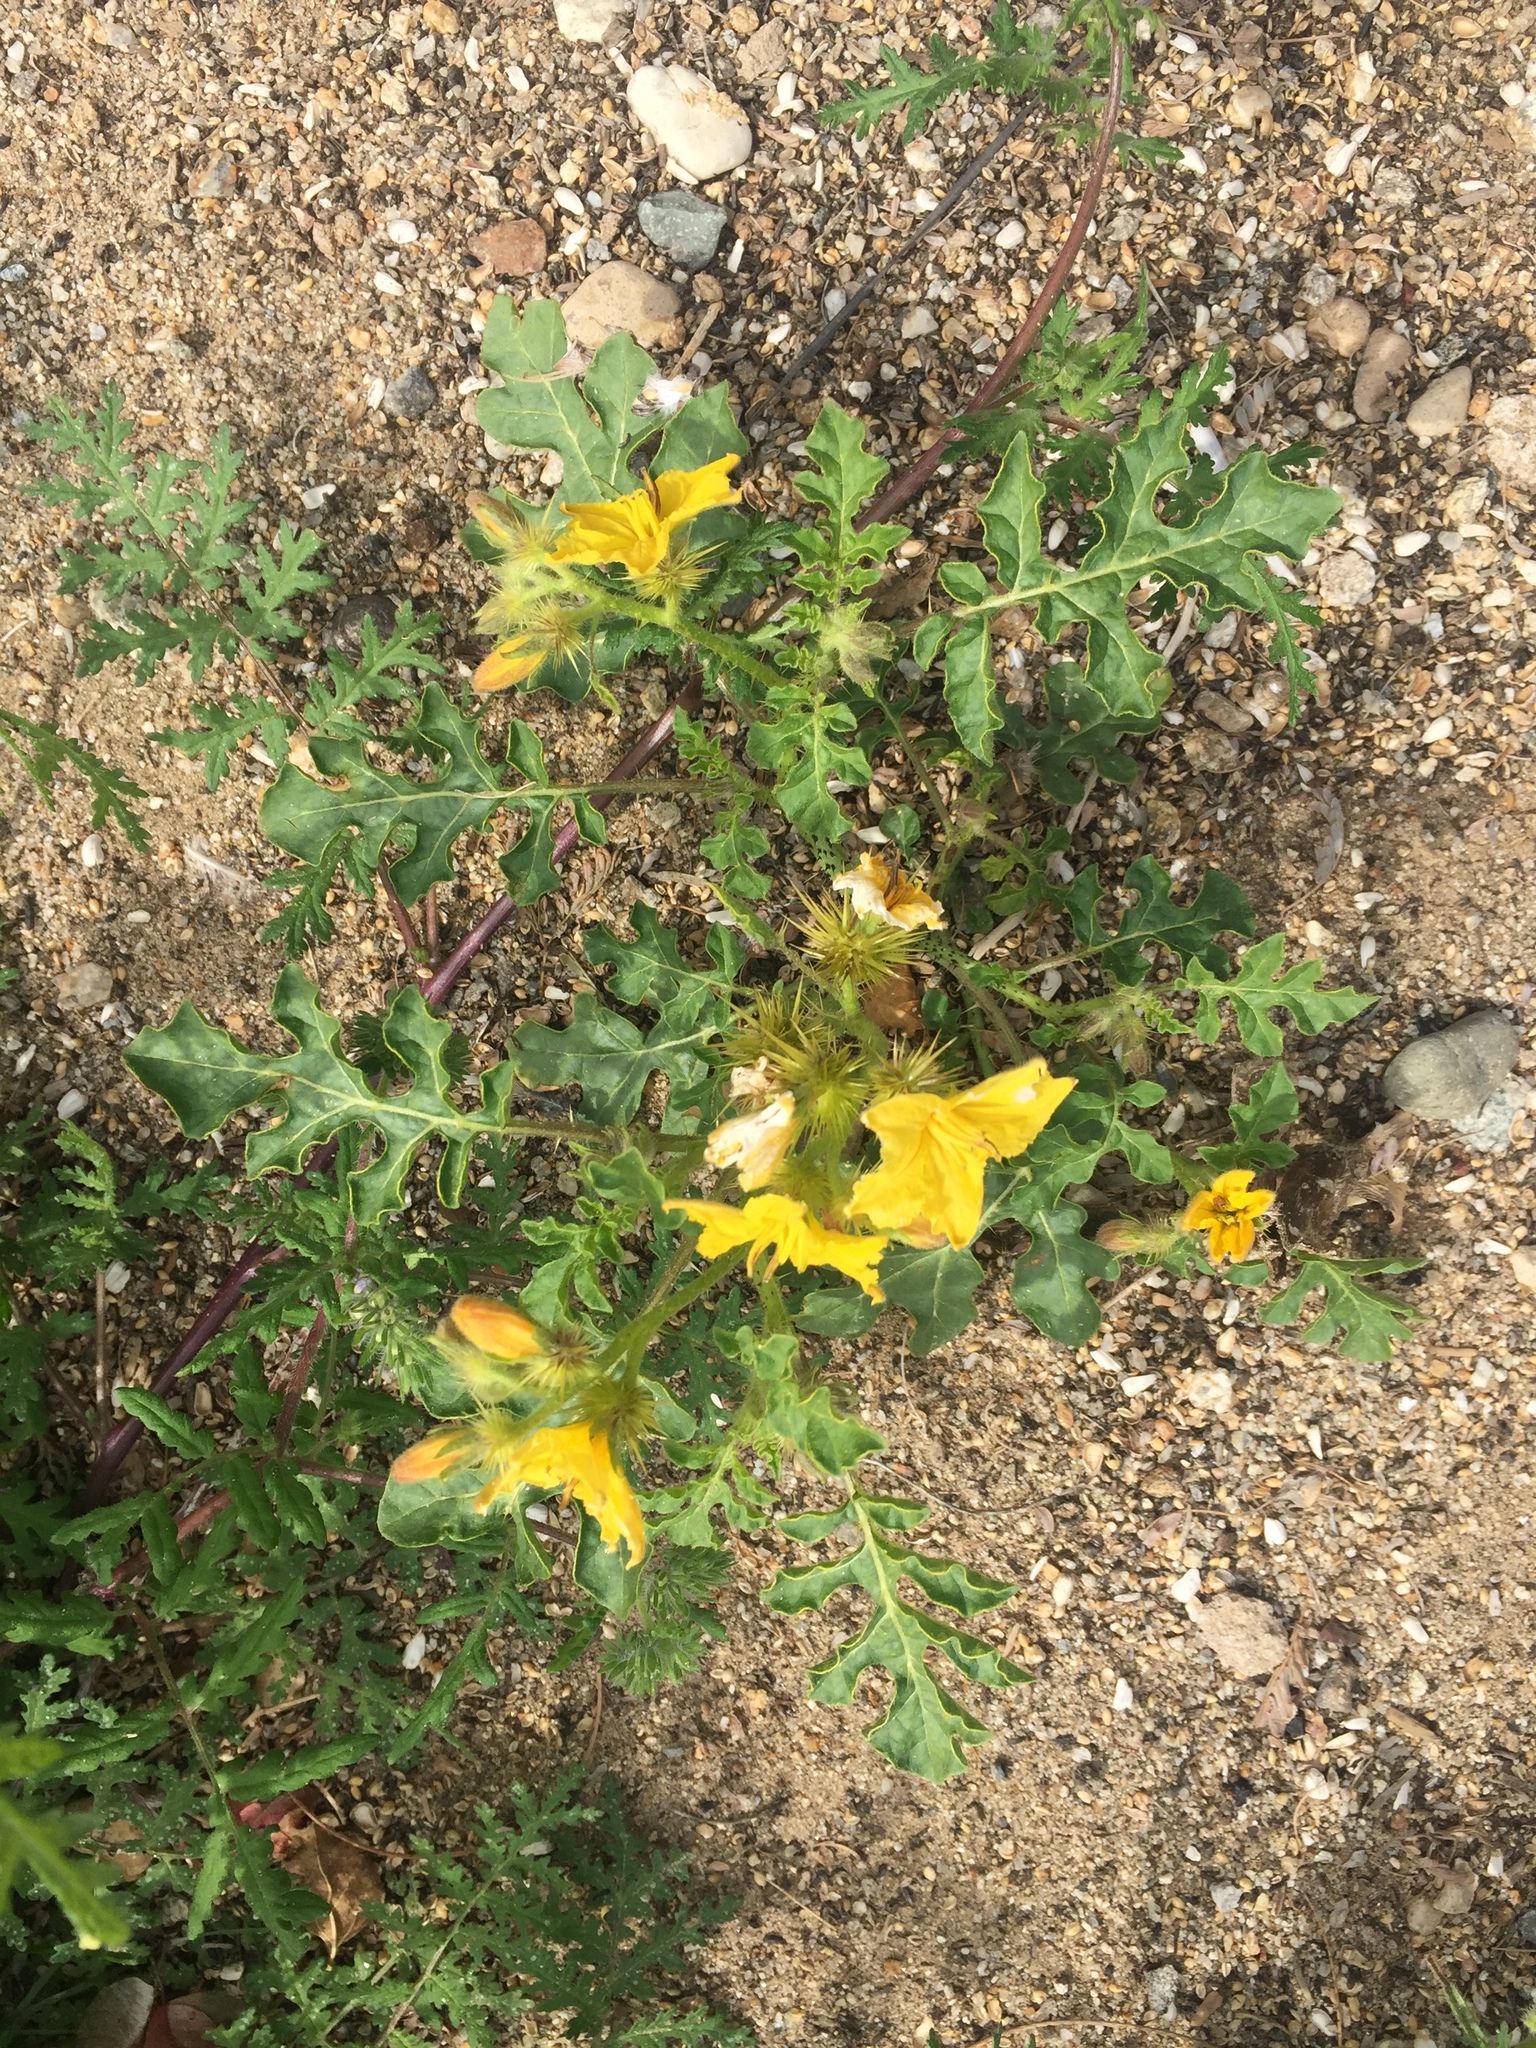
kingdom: Plantae
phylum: Tracheophyta
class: Magnoliopsida
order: Solanales
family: Solanaceae
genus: Solanum
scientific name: Solanum angustifolium
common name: Buffalobur nightshade
